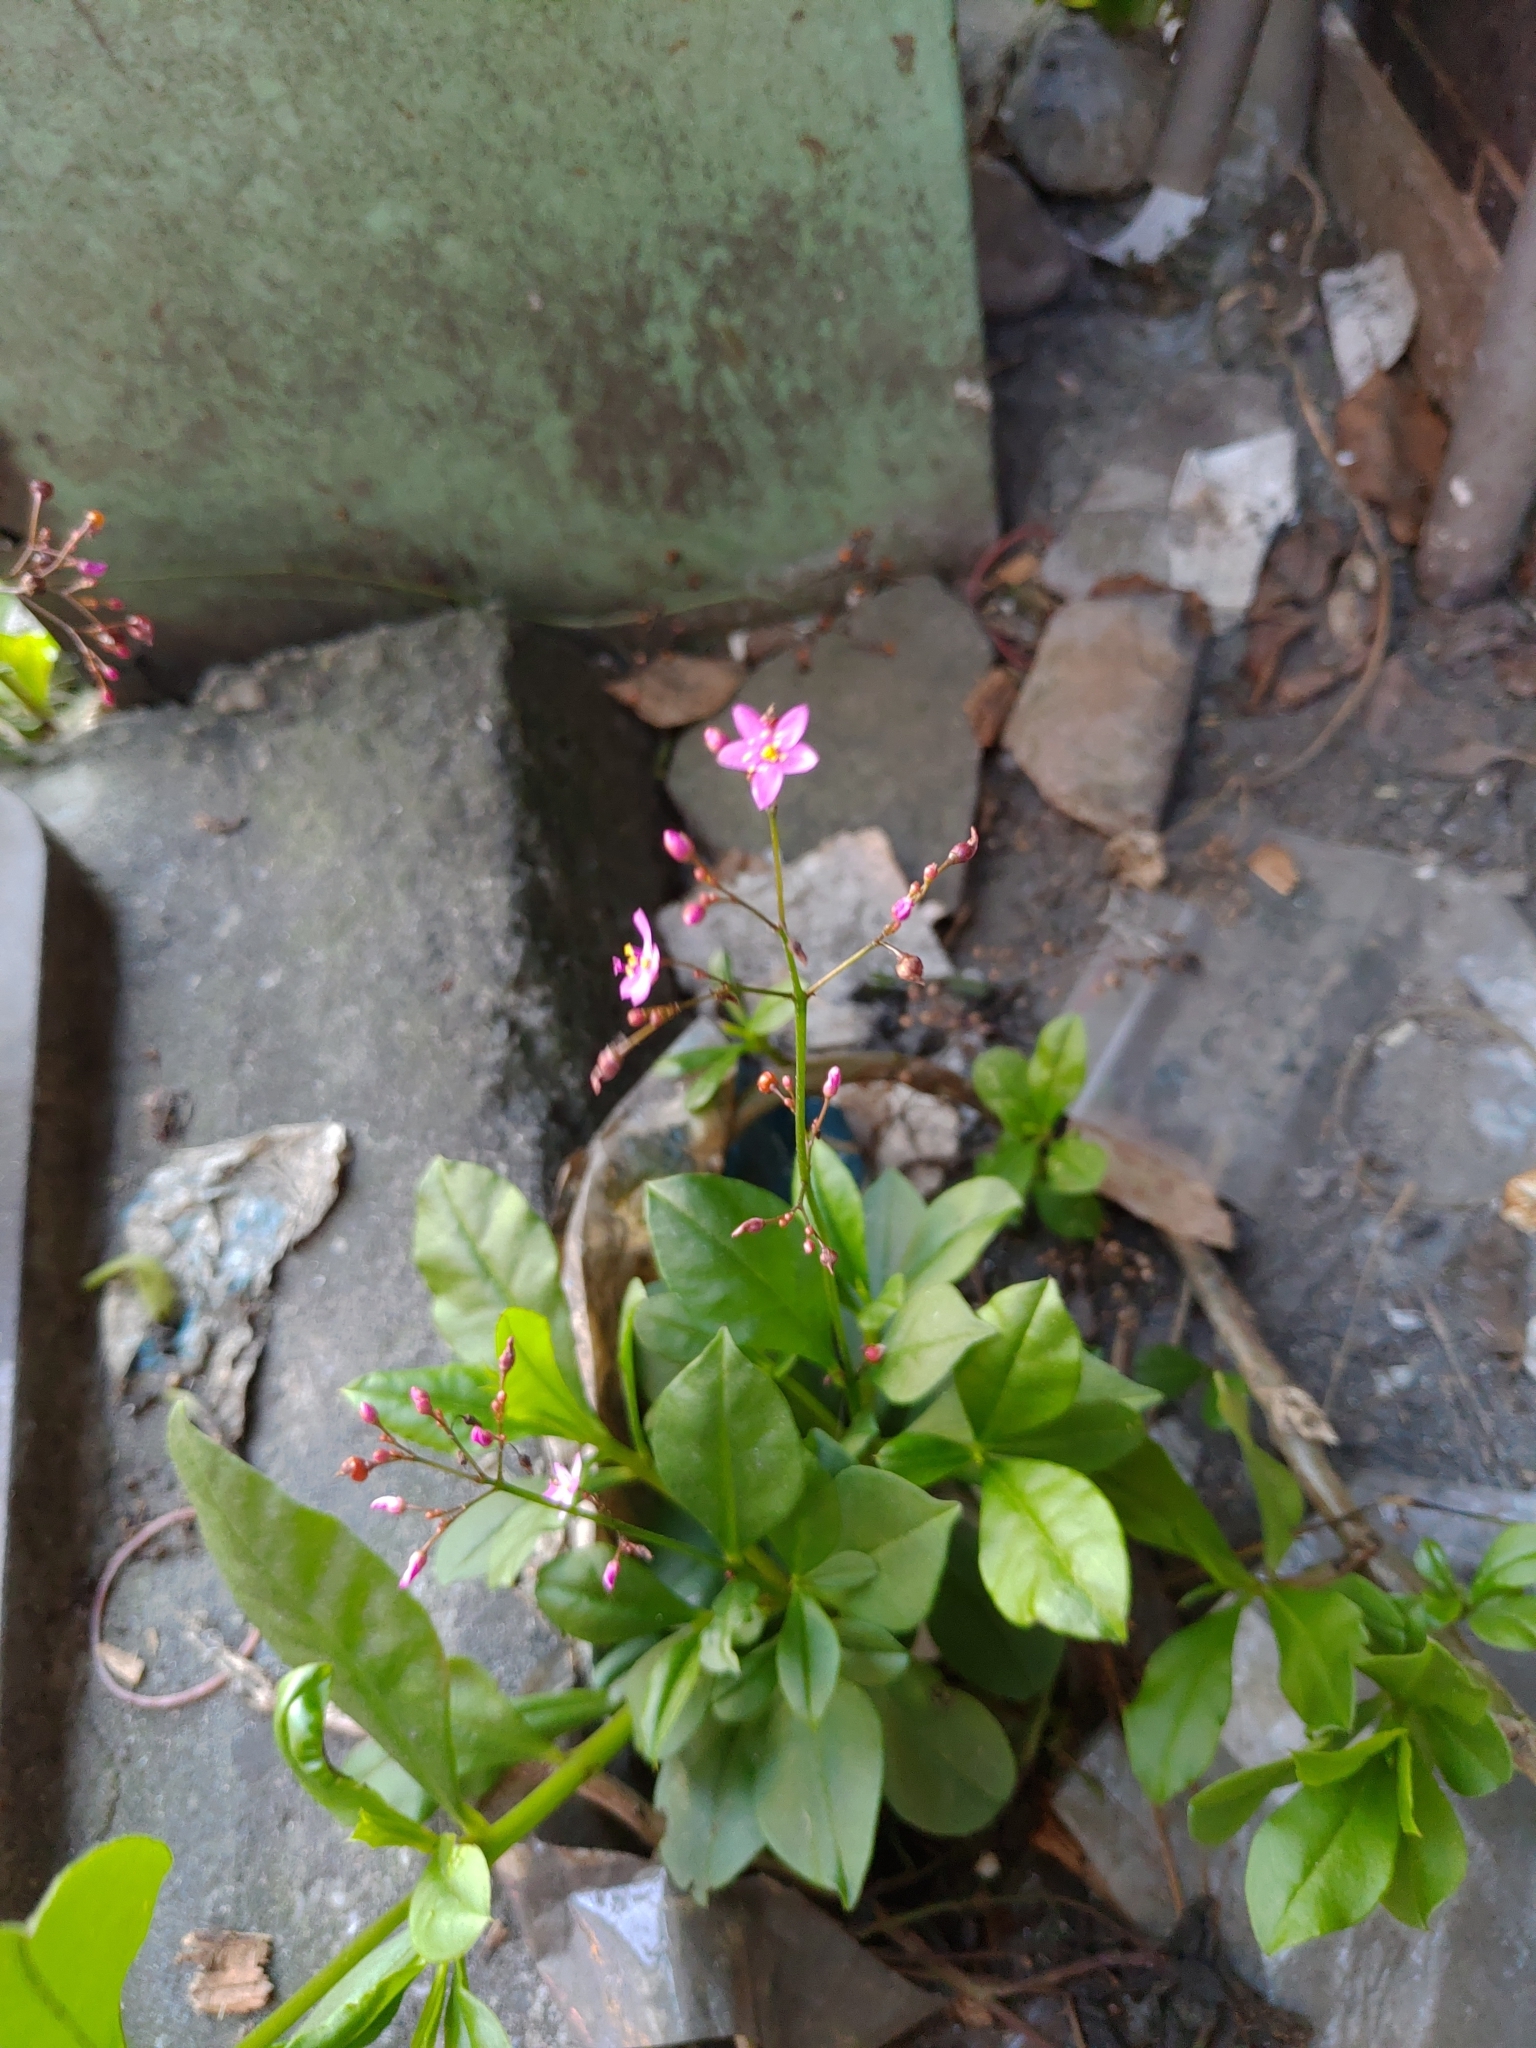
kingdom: Plantae
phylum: Tracheophyta
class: Magnoliopsida
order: Caryophyllales
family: Talinaceae
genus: Talinum
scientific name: Talinum paniculatum
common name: Jewels of opar
